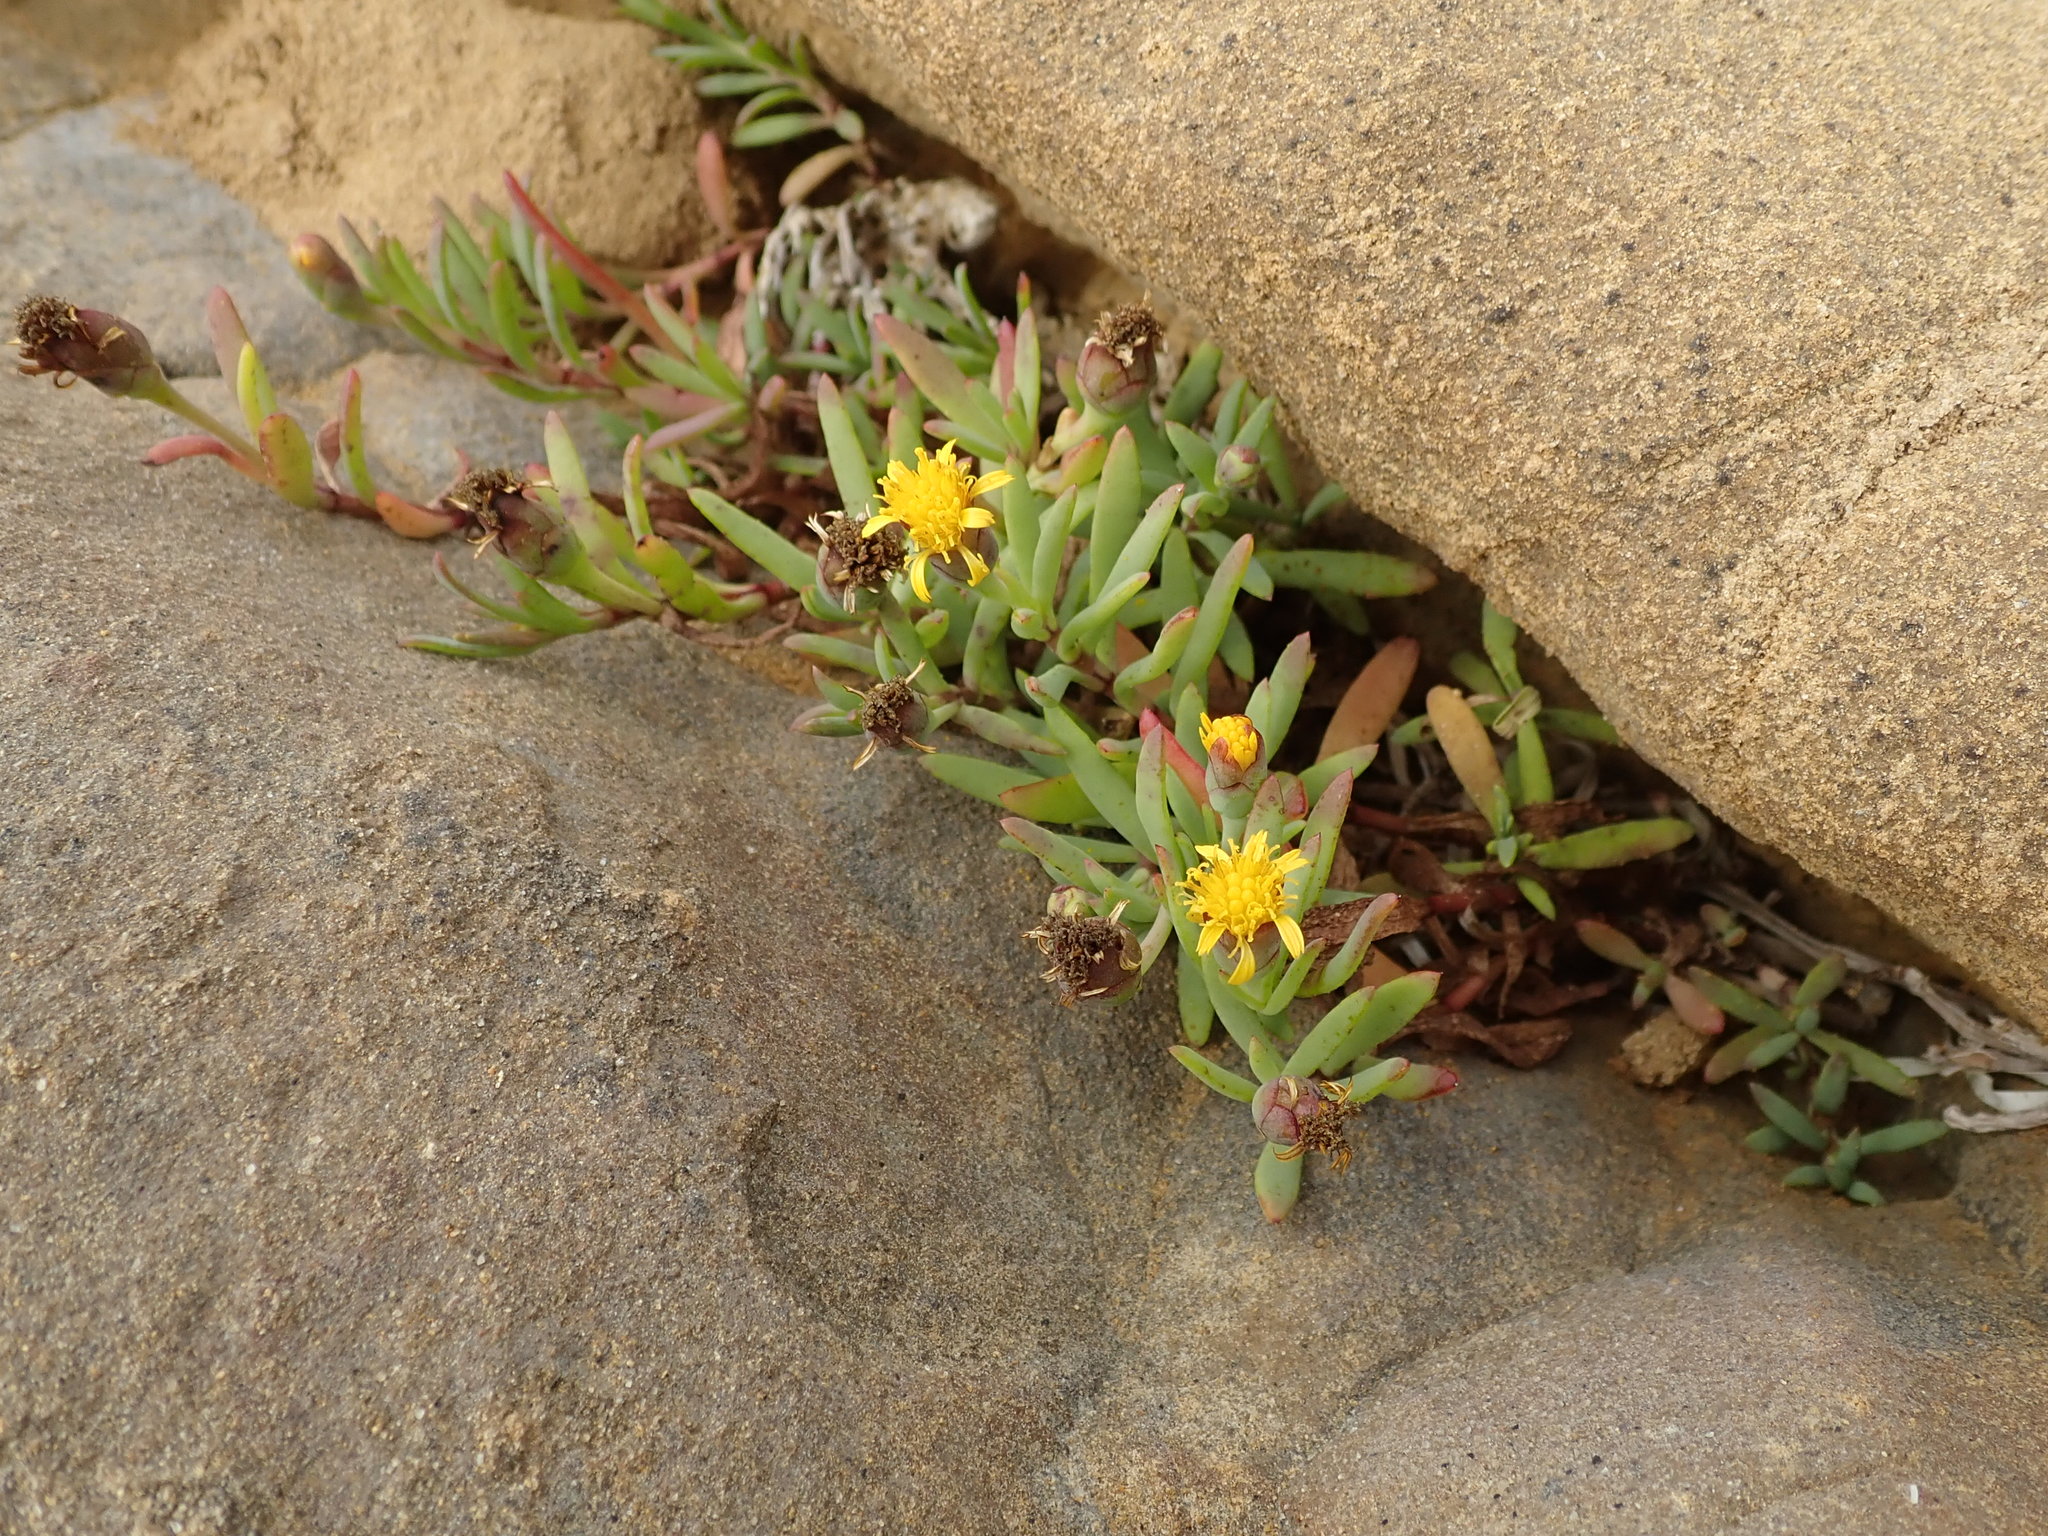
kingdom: Plantae
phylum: Tracheophyta
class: Magnoliopsida
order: Asterales
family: Asteraceae
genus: Jaumea
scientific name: Jaumea carnosa
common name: Fleshy jaumea
